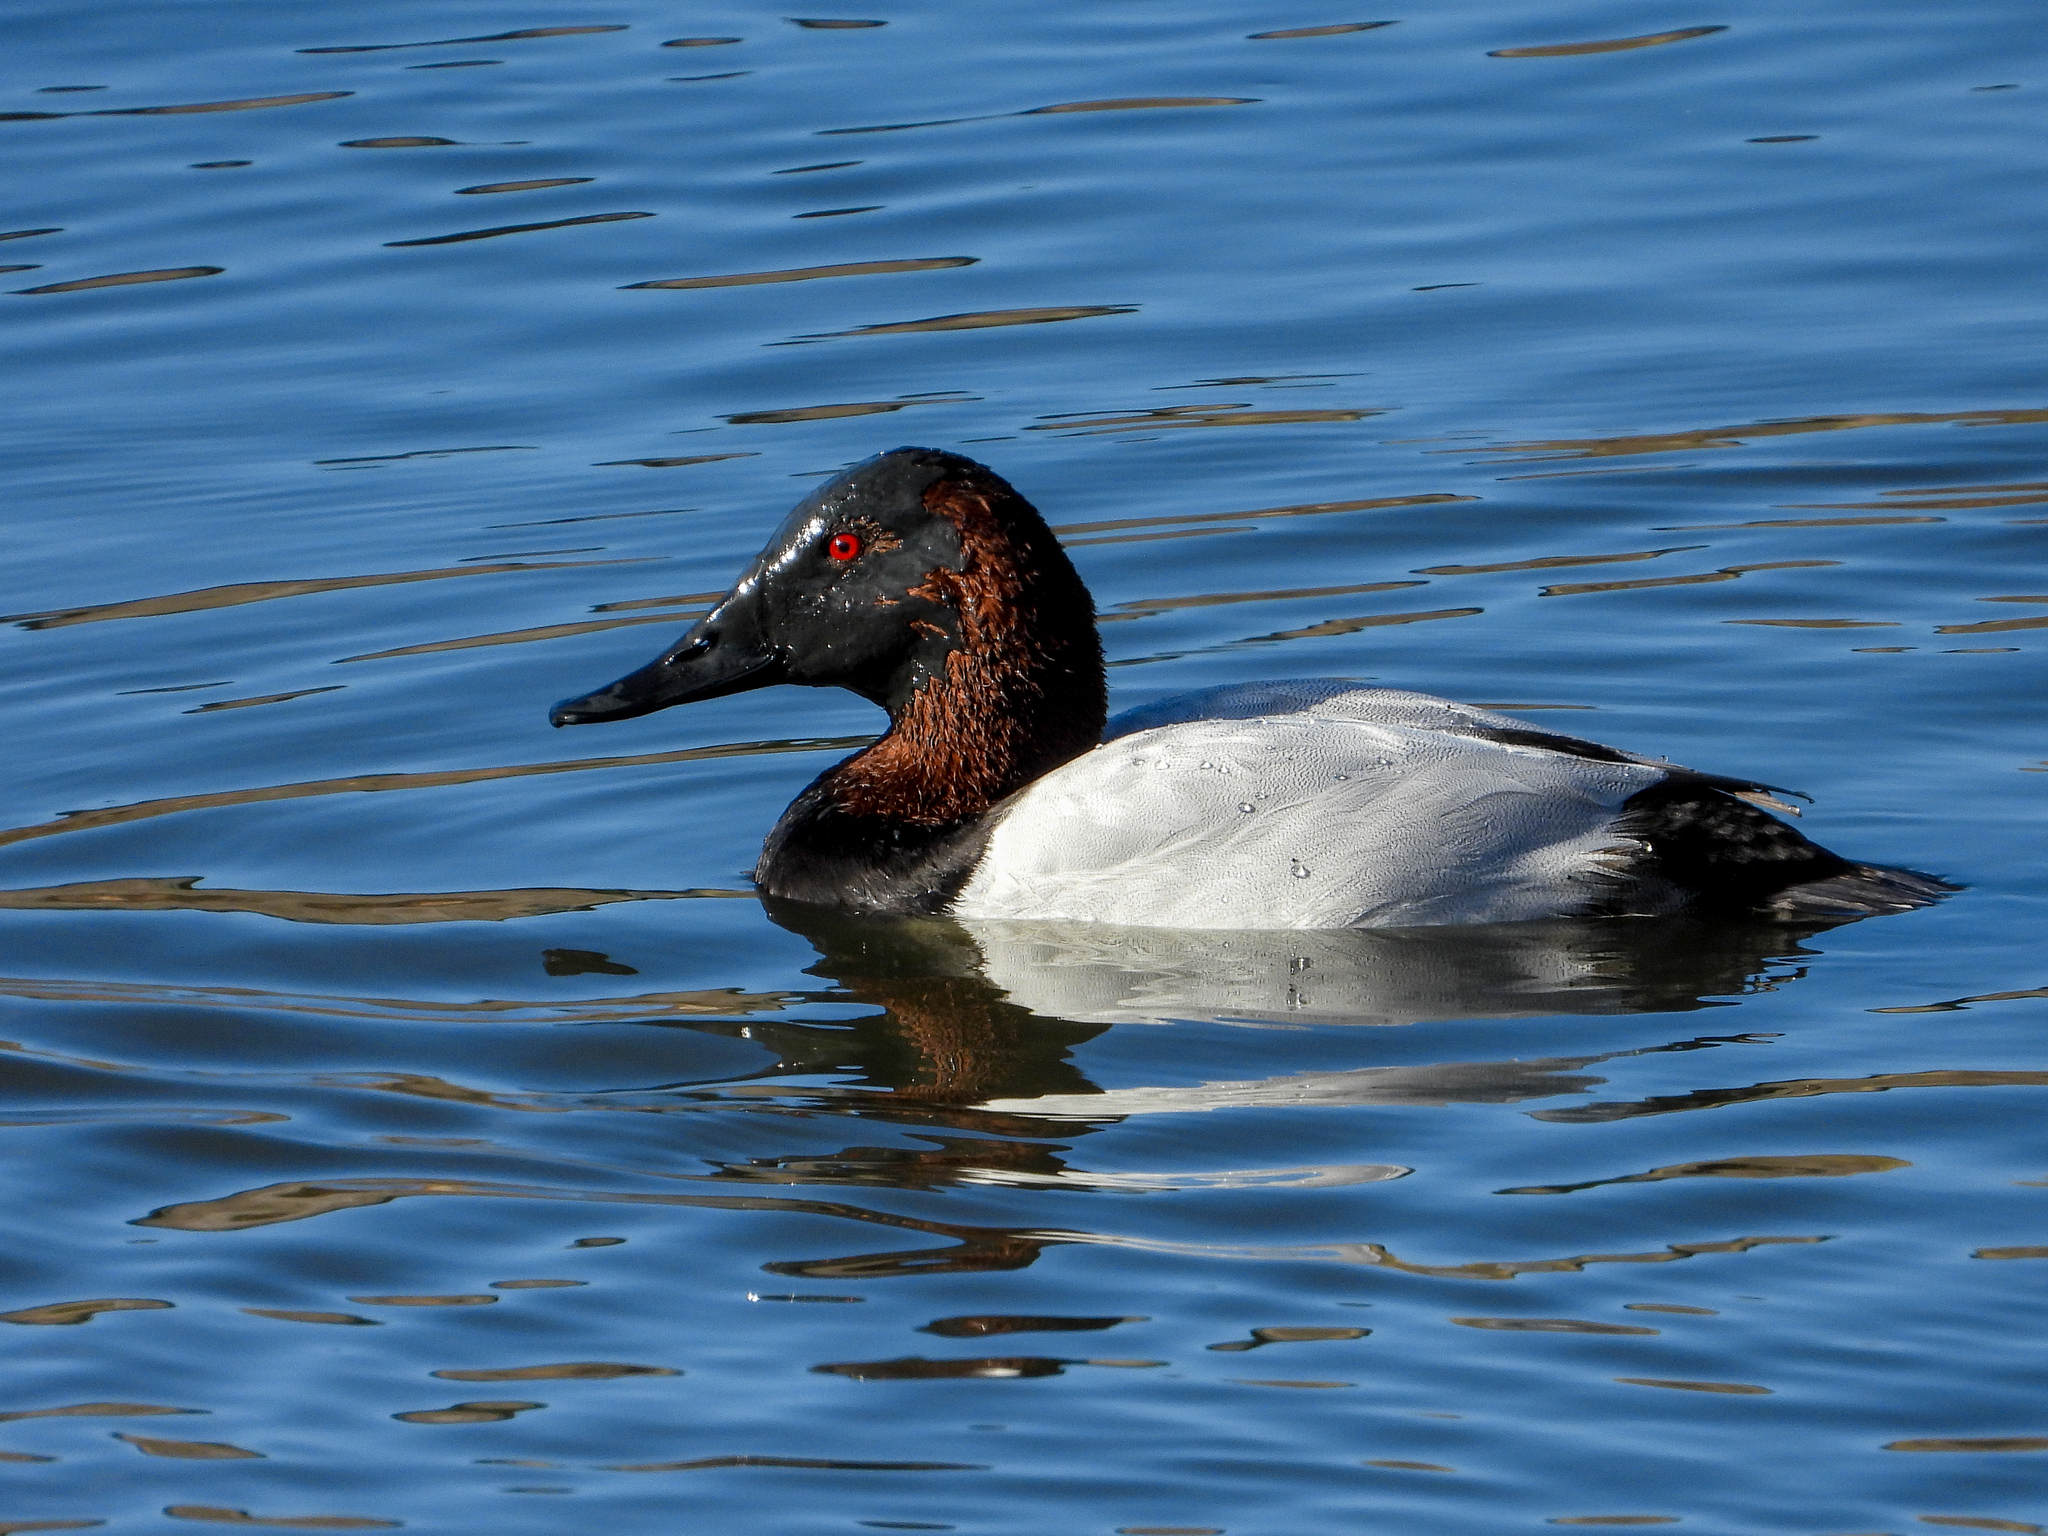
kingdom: Animalia
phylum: Chordata
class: Aves
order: Anseriformes
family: Anatidae
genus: Aythya
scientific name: Aythya valisineria
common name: Canvasback
